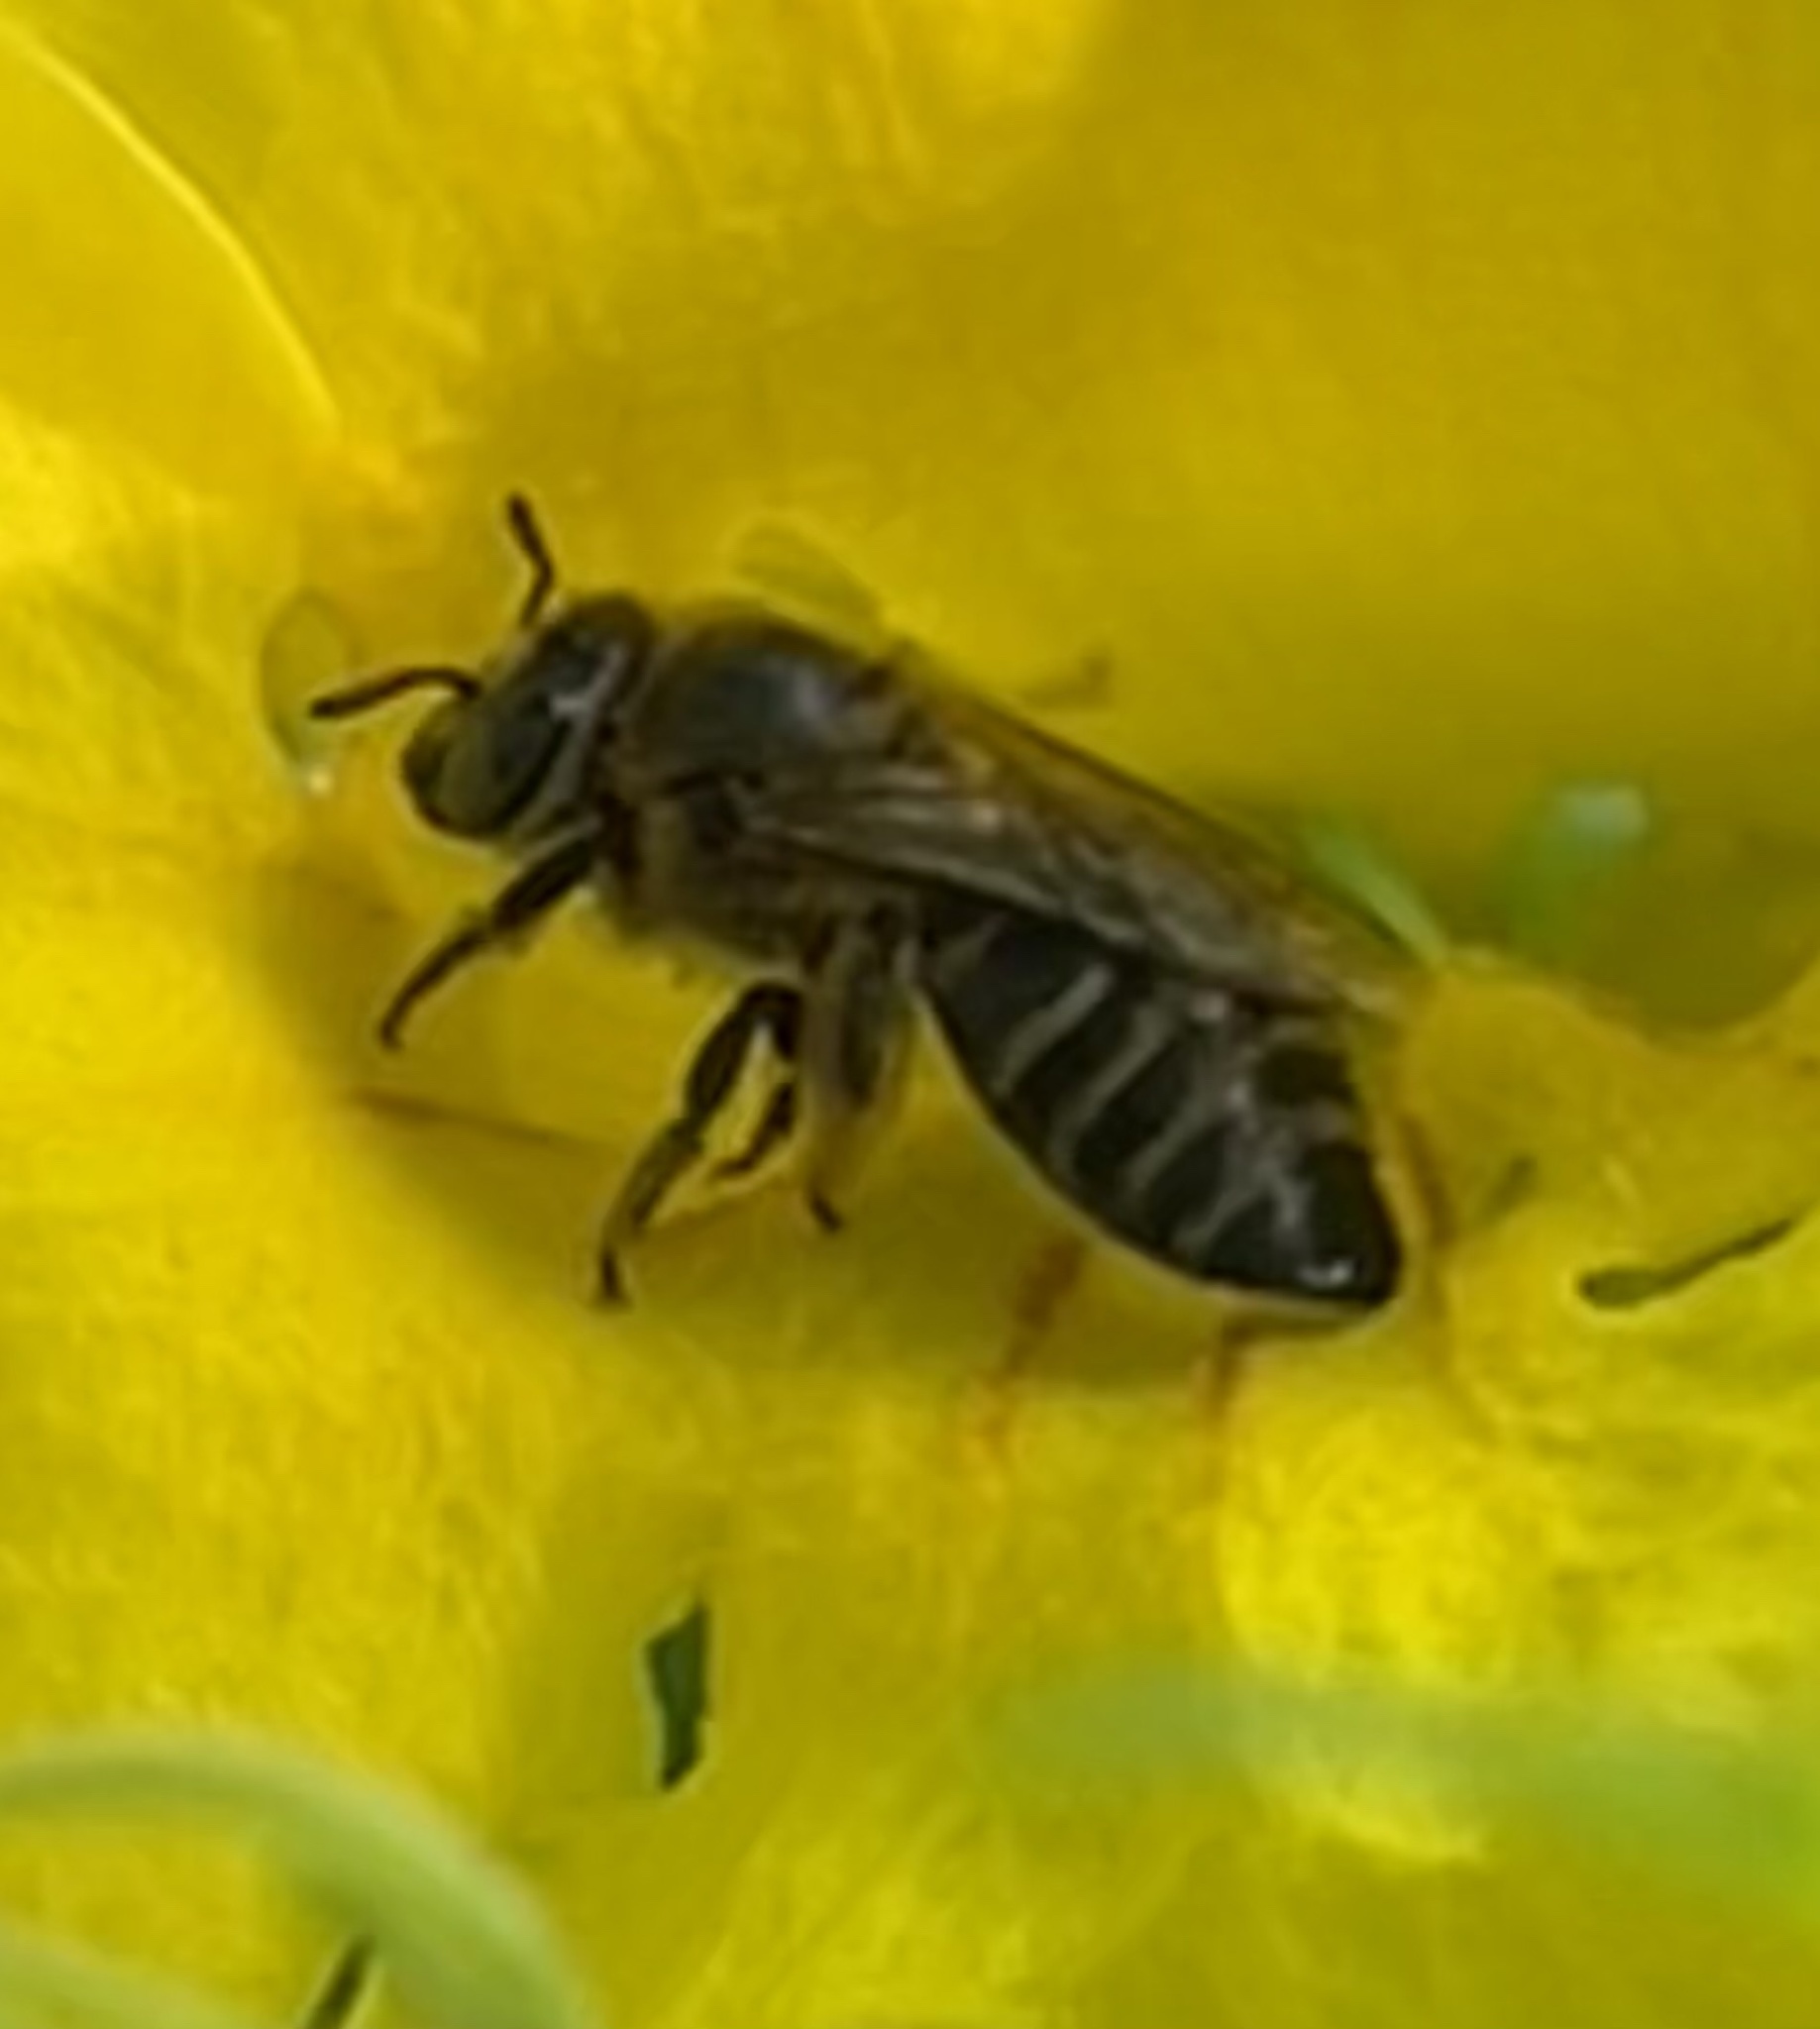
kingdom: Animalia
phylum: Arthropoda
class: Insecta
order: Hymenoptera
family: Apidae
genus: Macrogalea
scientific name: Macrogalea candida
